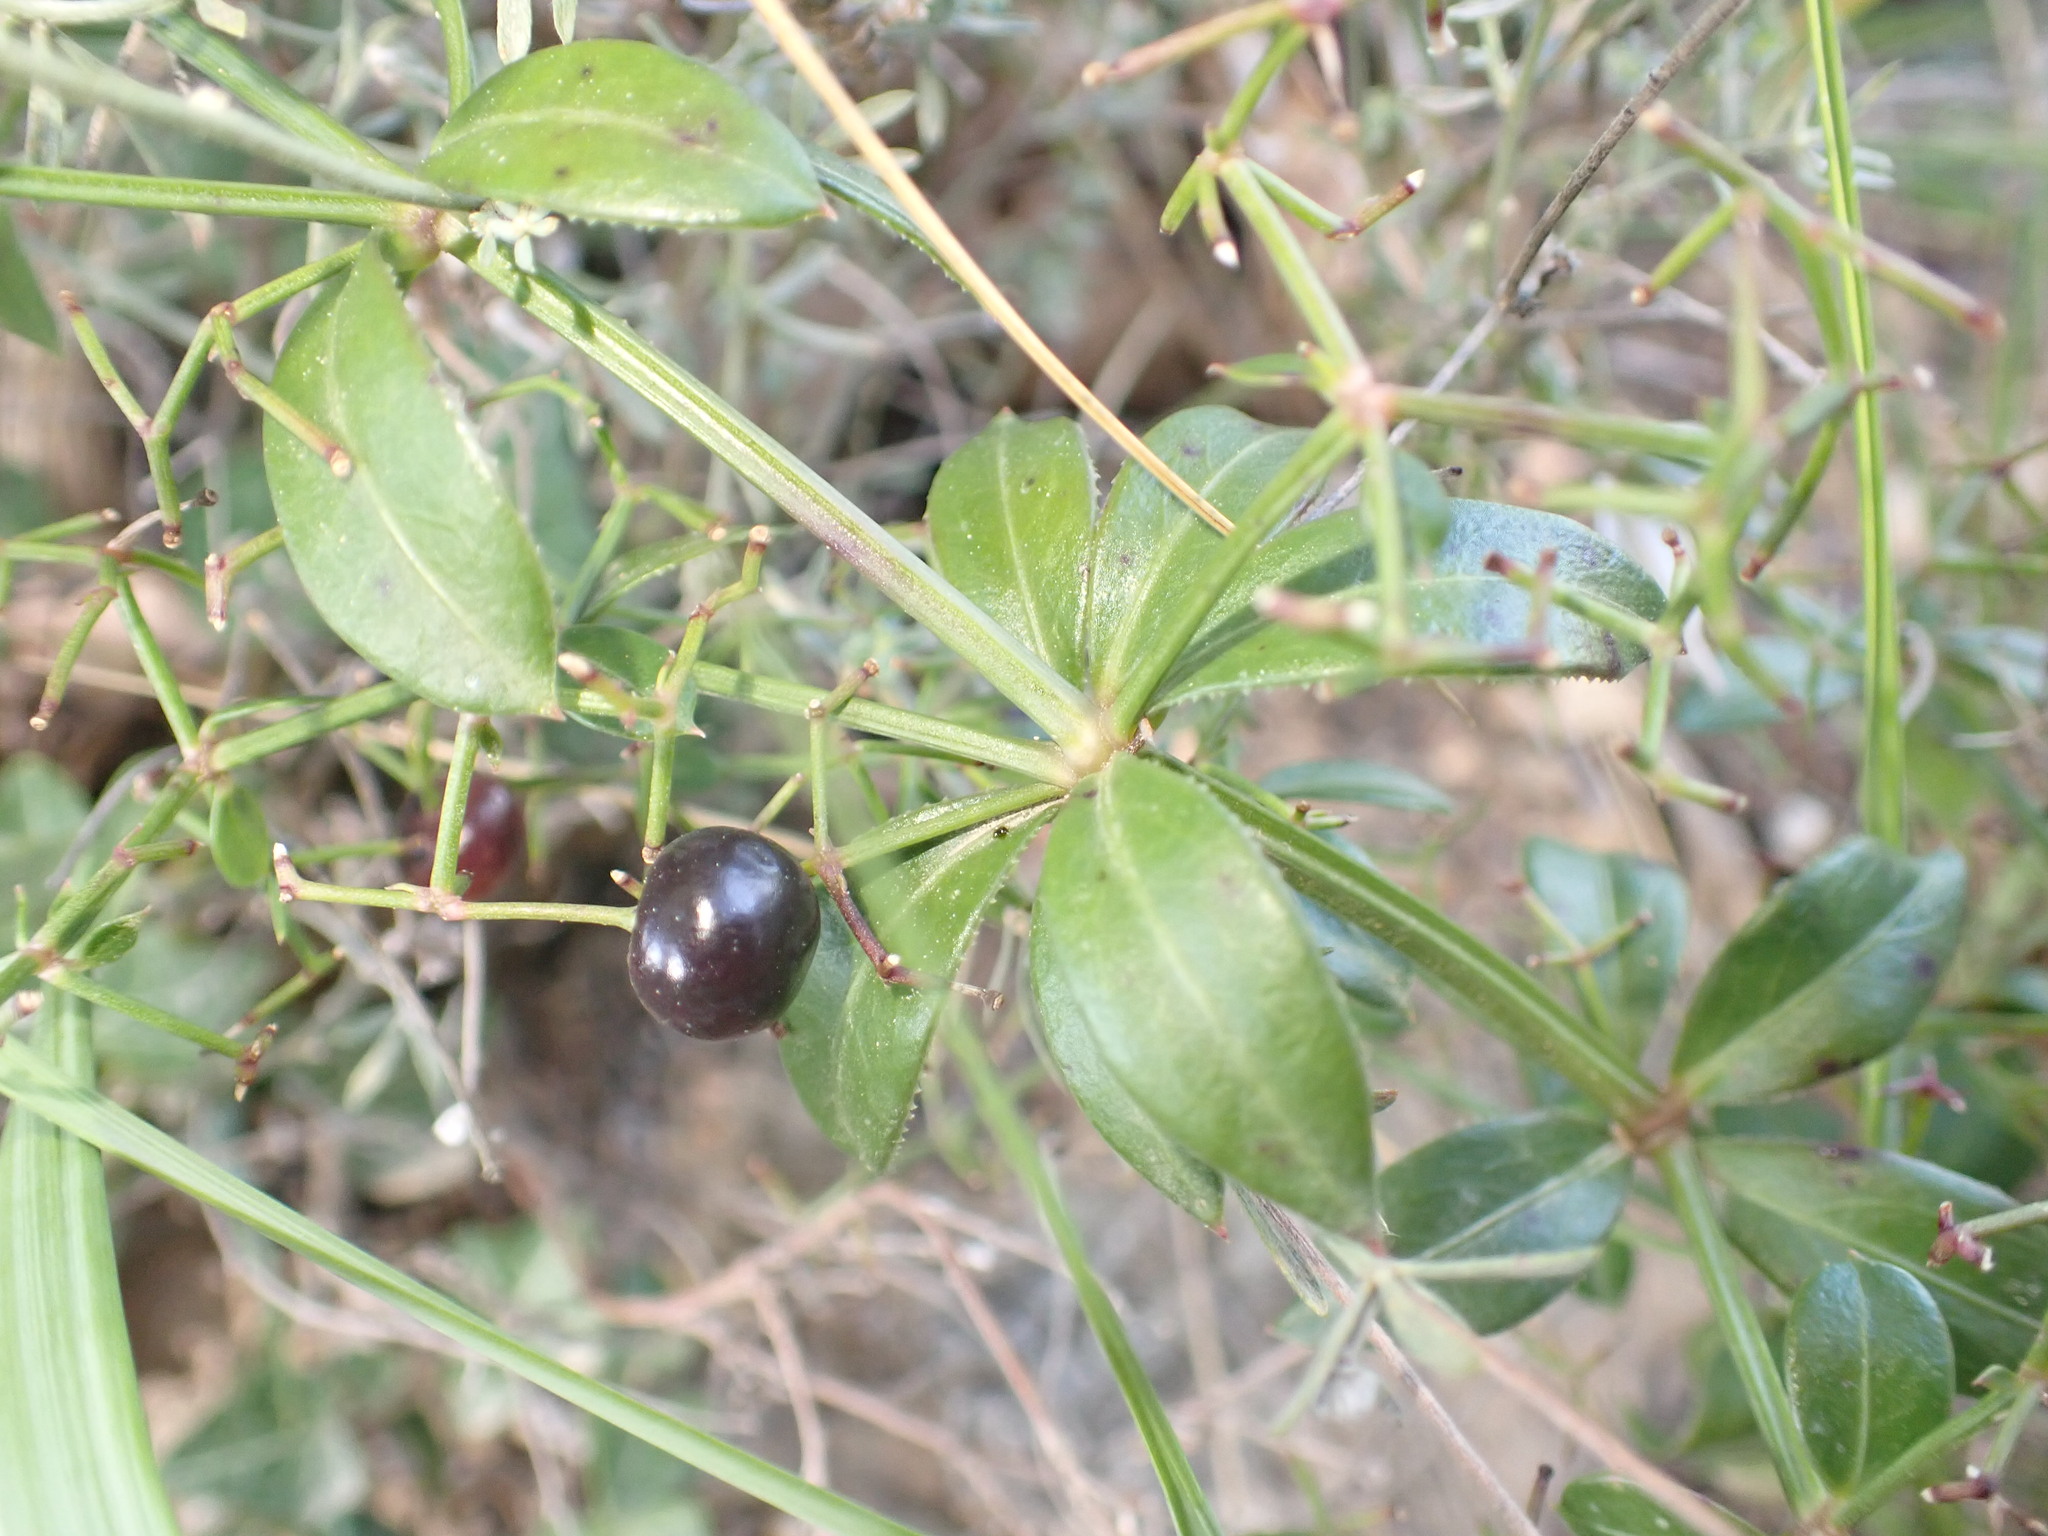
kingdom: Plantae
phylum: Tracheophyta
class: Magnoliopsida
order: Gentianales
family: Rubiaceae
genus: Rubia
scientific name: Rubia peregrina
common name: Wild madder
